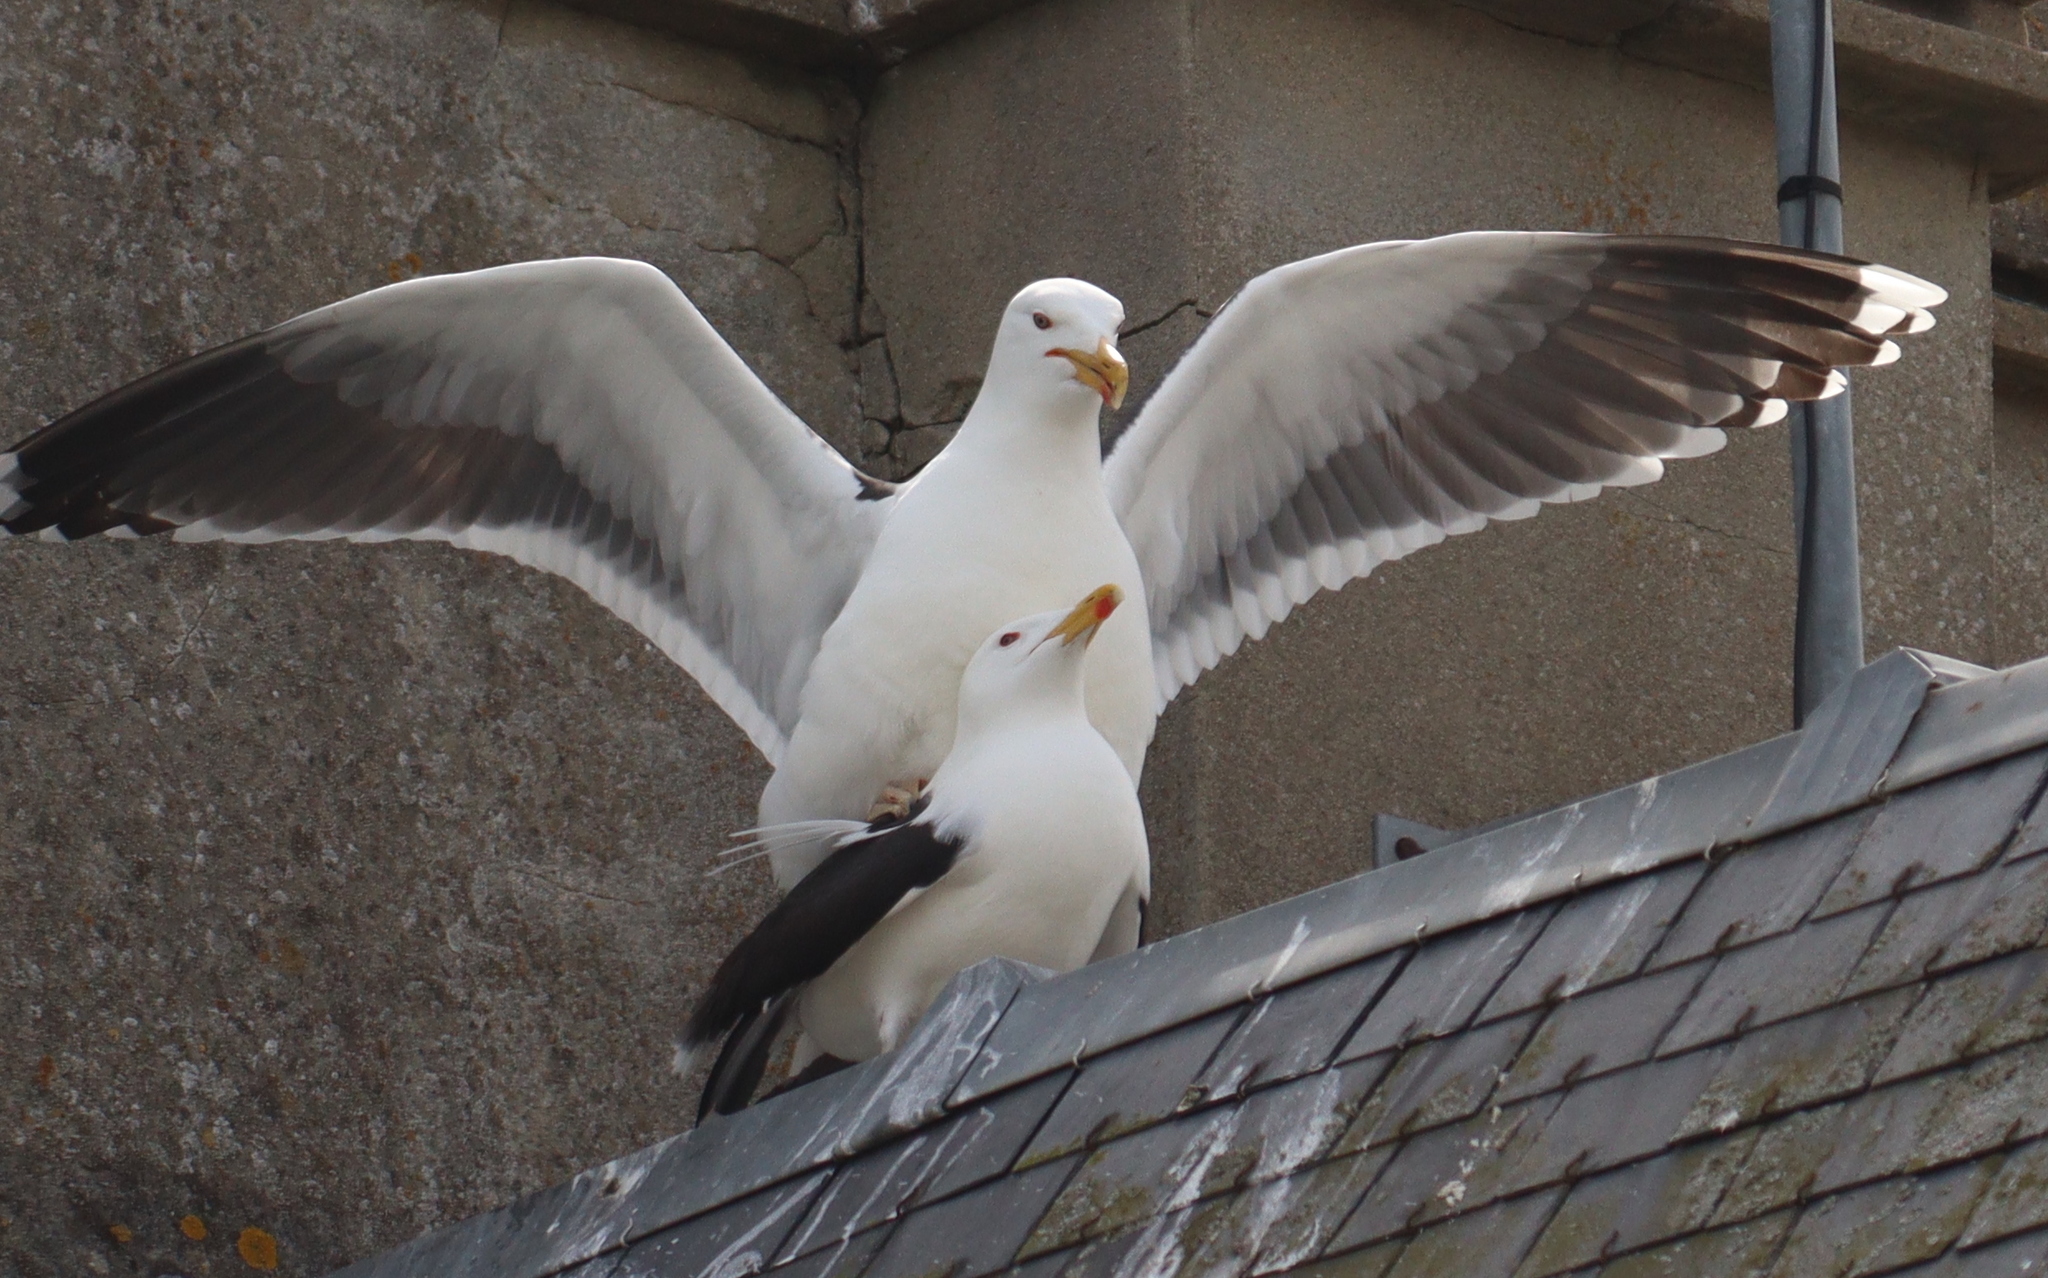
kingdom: Animalia
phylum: Chordata
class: Aves
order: Charadriiformes
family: Laridae
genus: Larus
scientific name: Larus fuscus
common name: Lesser black-backed gull
